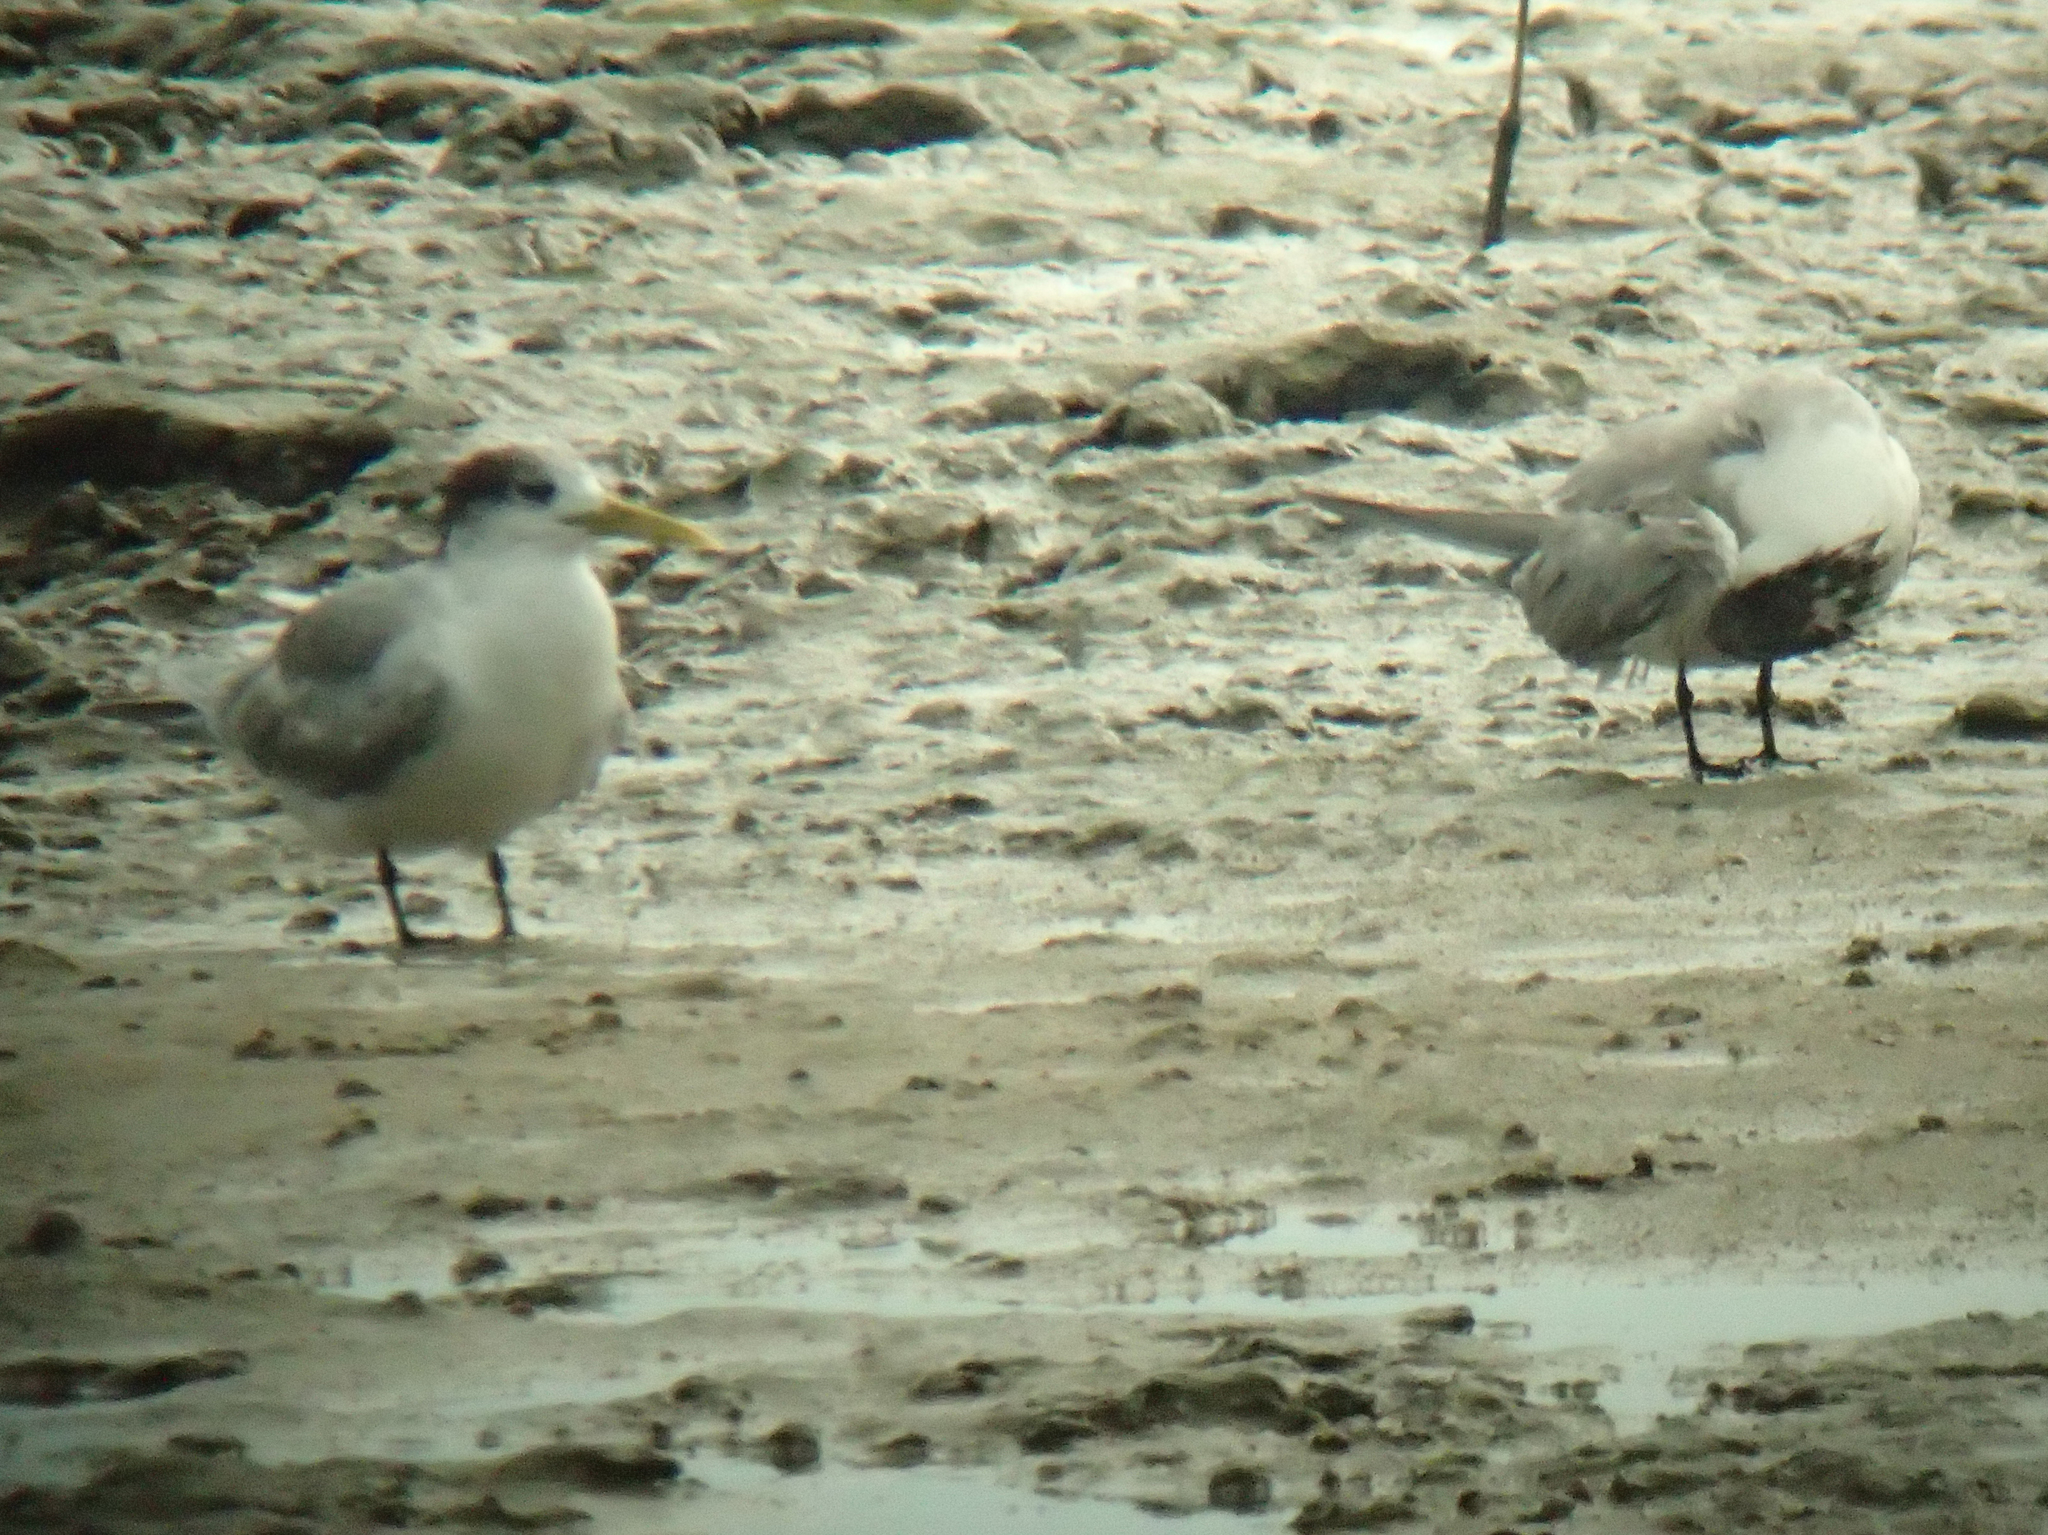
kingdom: Animalia
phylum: Chordata
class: Aves
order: Charadriiformes
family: Laridae
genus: Thalasseus
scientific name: Thalasseus bergii
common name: Greater crested tern
